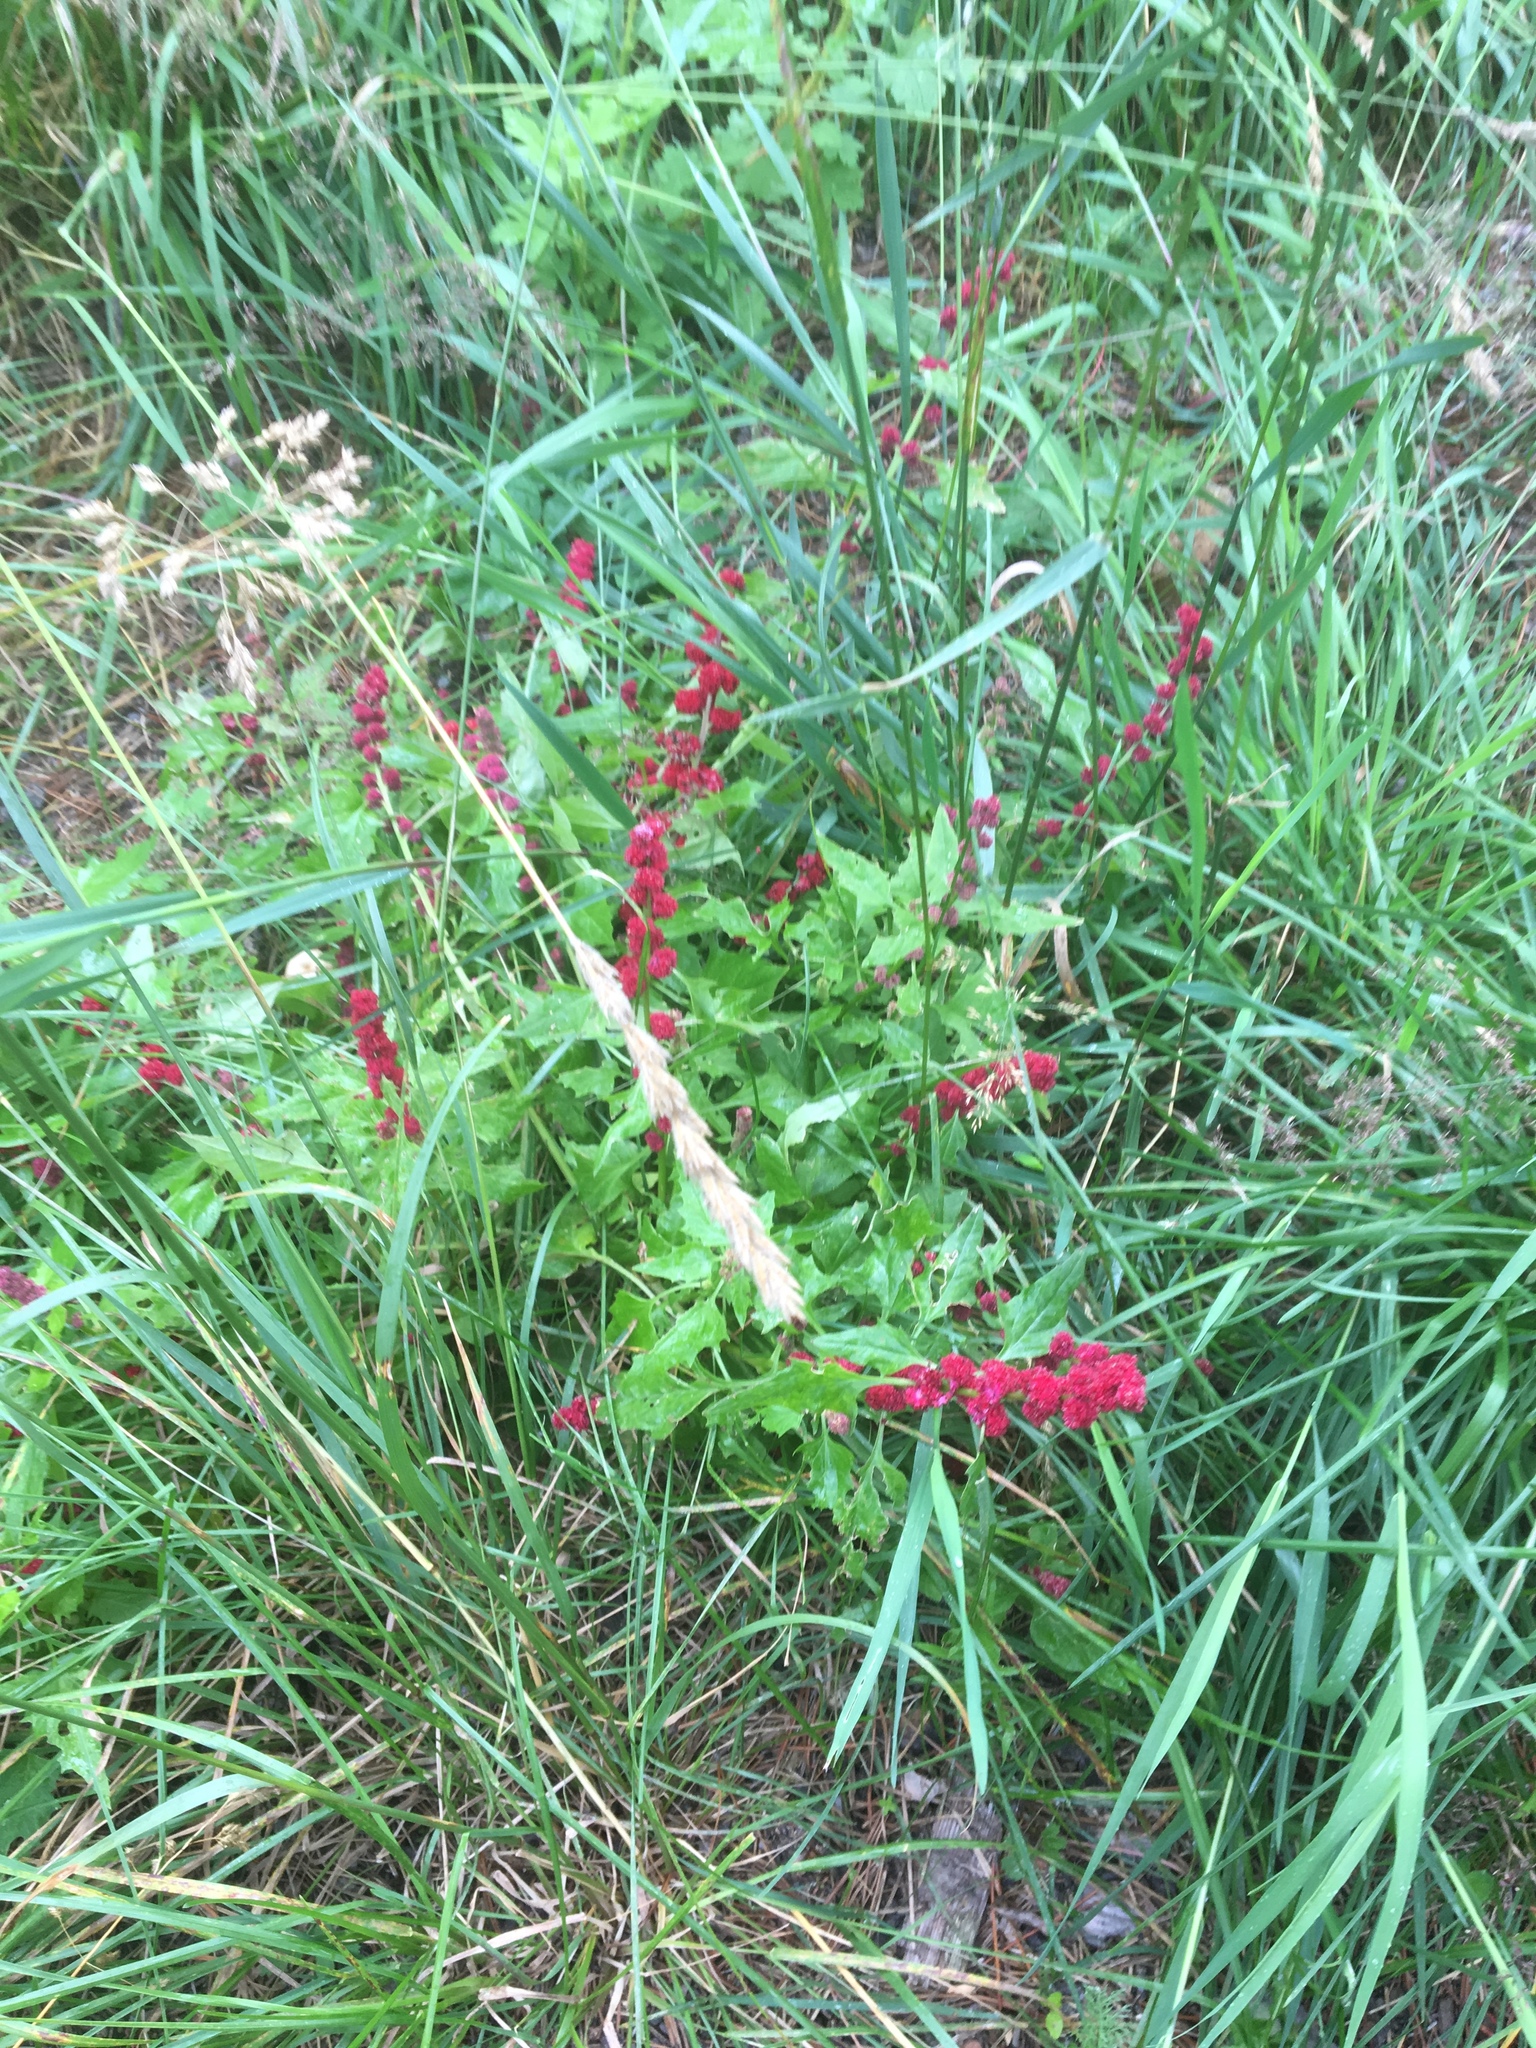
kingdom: Plantae
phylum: Tracheophyta
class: Magnoliopsida
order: Caryophyllales
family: Amaranthaceae
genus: Blitum
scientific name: Blitum capitatum
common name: Strawberry-blight
